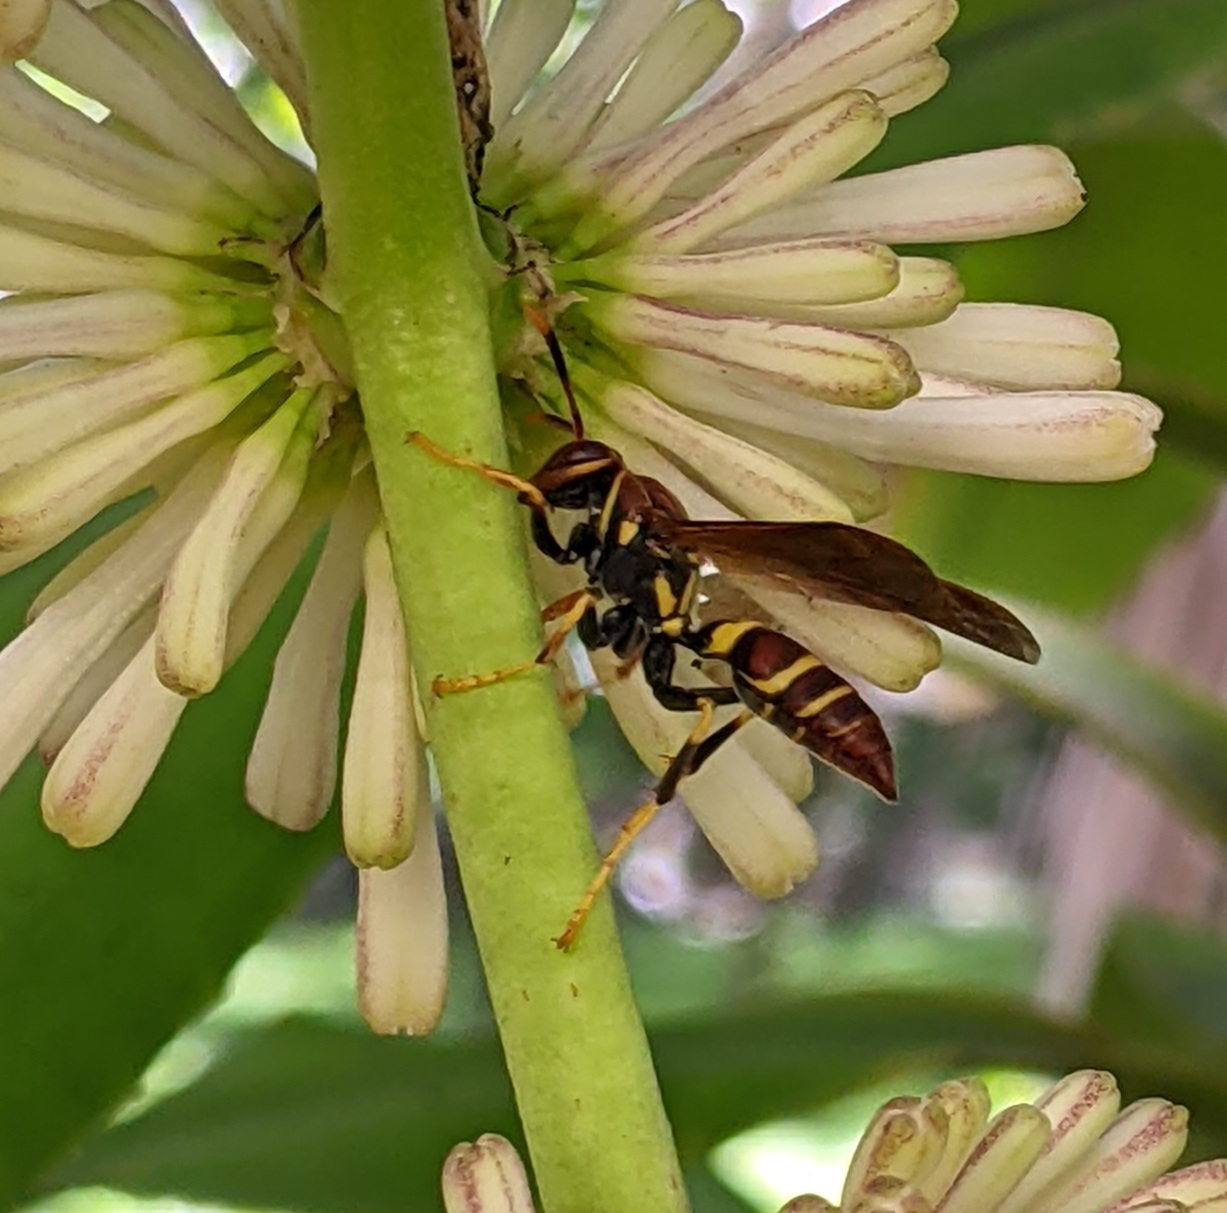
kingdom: Animalia
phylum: Arthropoda
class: Insecta
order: Hymenoptera
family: Eumenidae
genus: Polistes
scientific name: Polistes crinitus
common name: Jack spaniard
